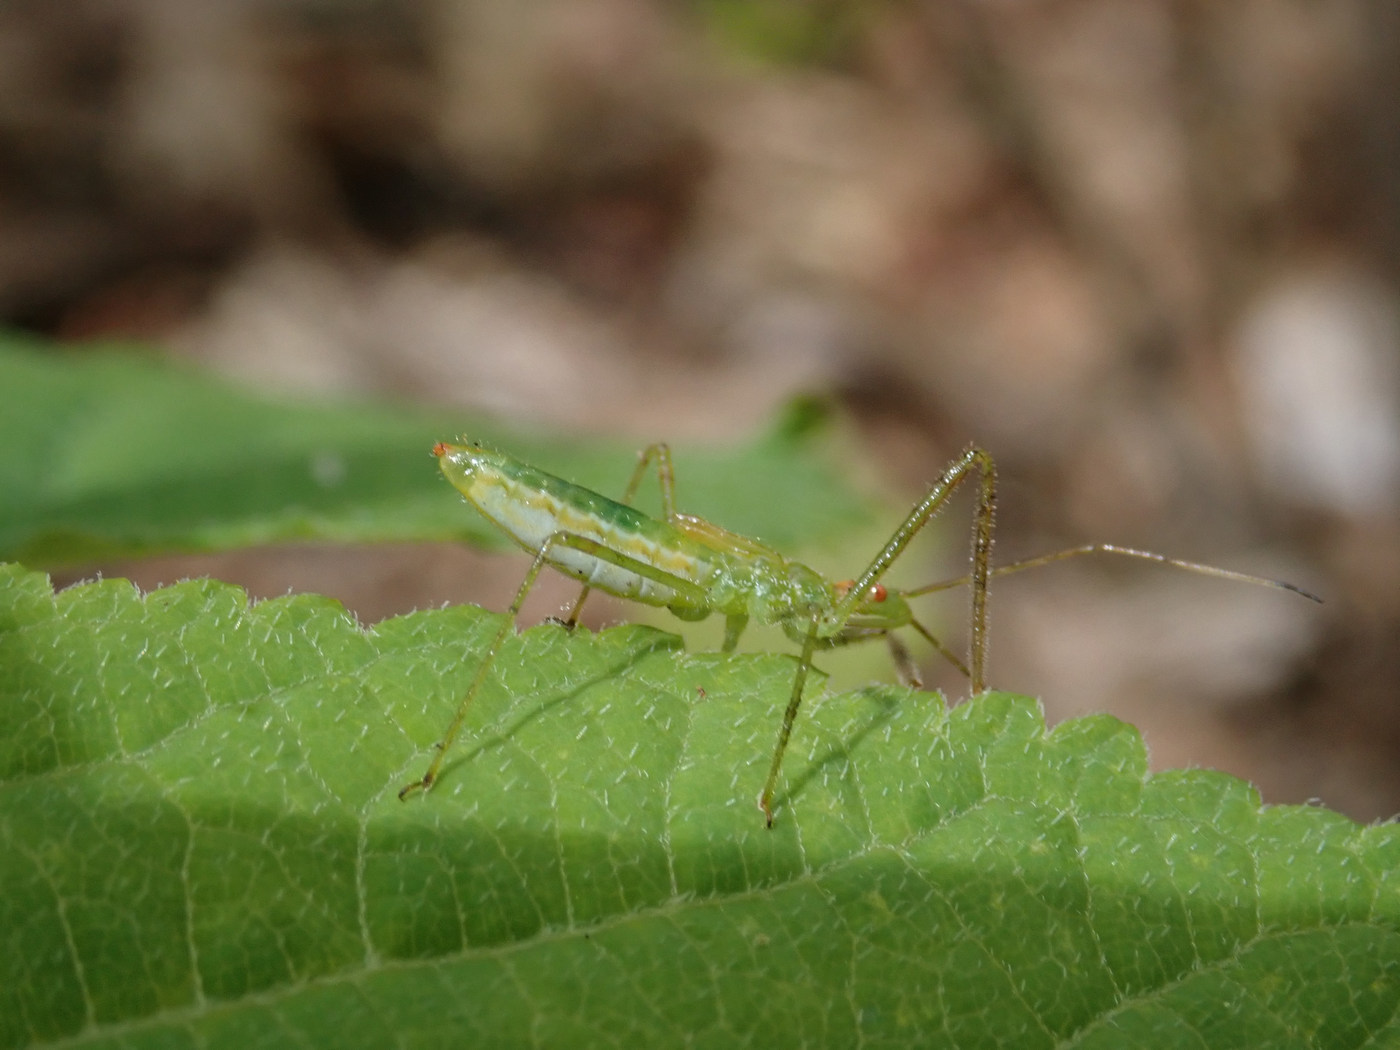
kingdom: Animalia
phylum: Arthropoda
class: Insecta
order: Hemiptera
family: Reduviidae
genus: Zelus
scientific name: Zelus luridus
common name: Pale green assassin bug
